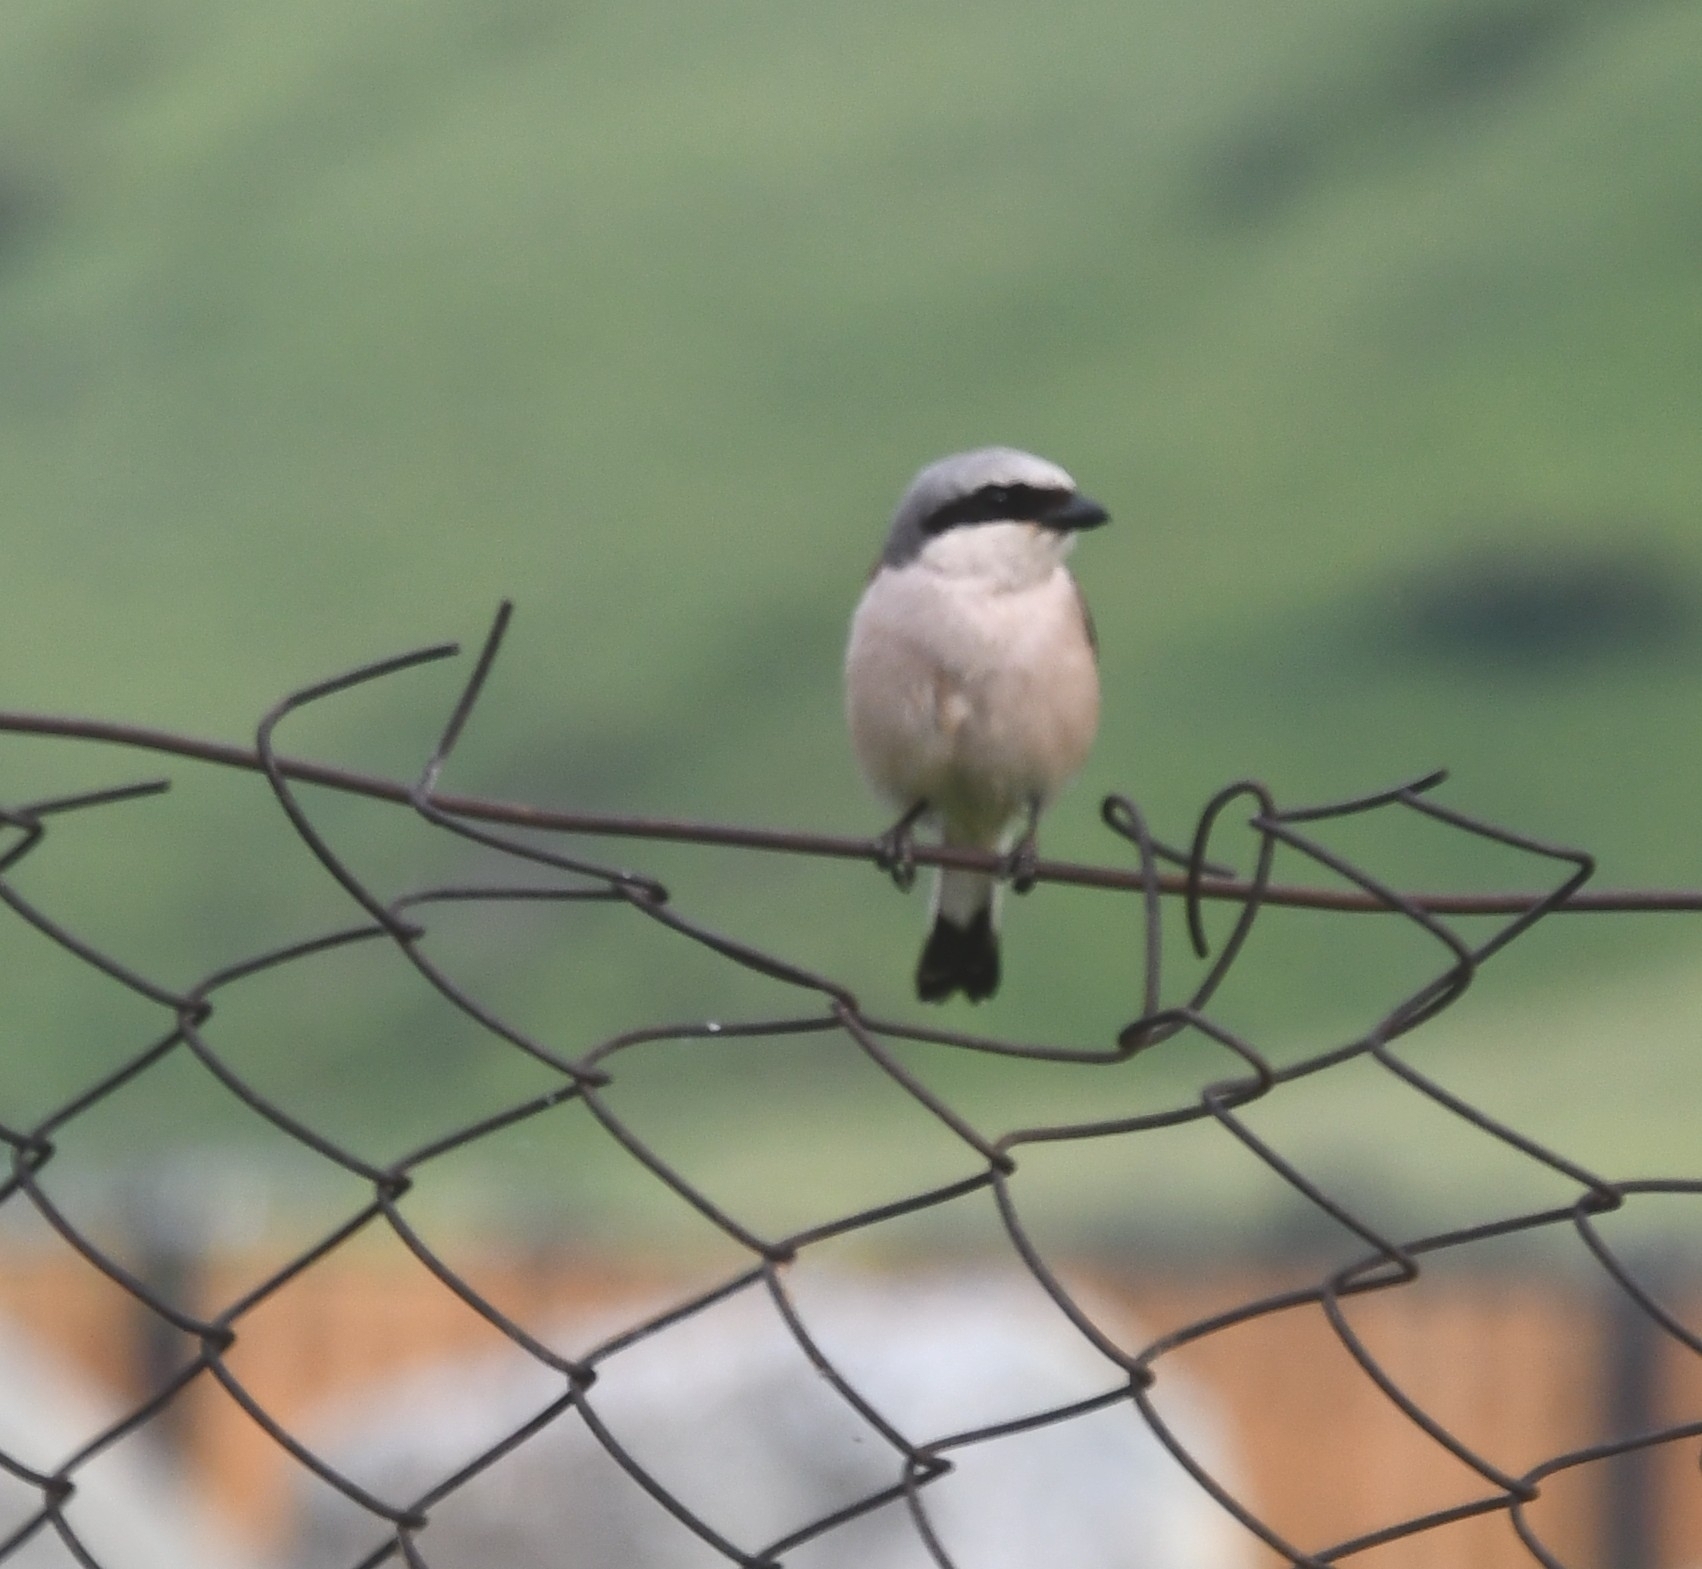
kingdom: Animalia
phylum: Chordata
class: Aves
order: Passeriformes
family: Laniidae
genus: Lanius
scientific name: Lanius collurio
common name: Red-backed shrike
